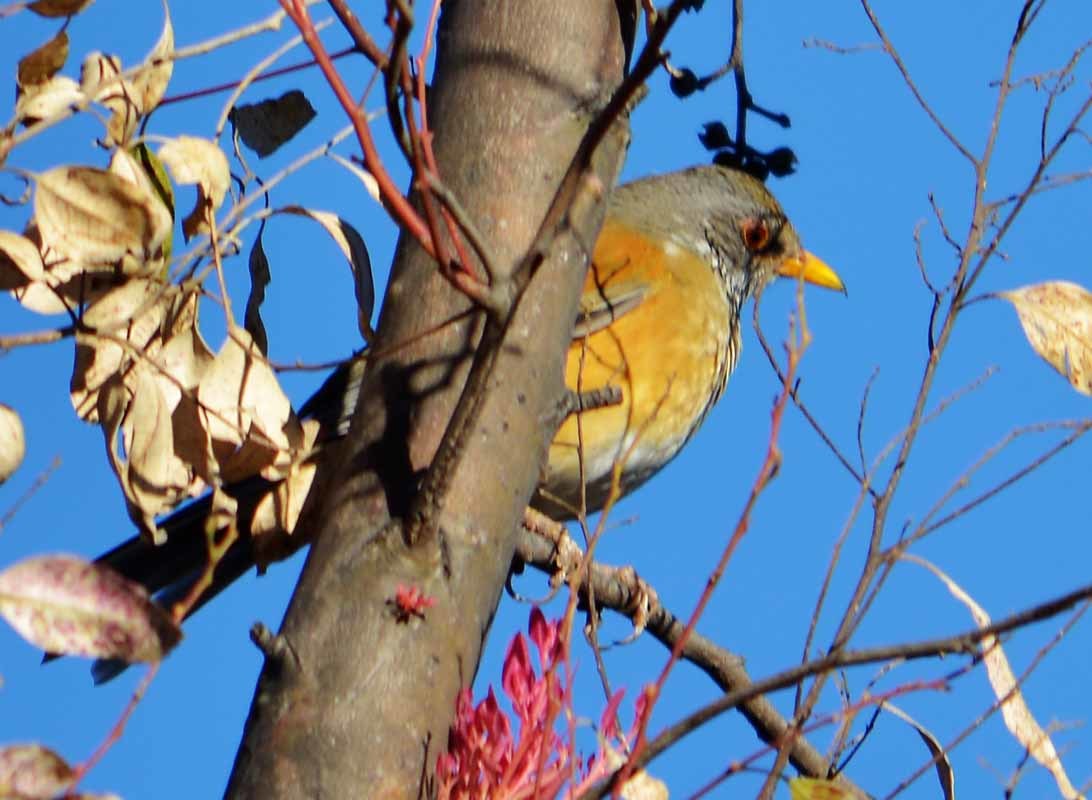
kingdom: Animalia
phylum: Chordata
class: Aves
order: Passeriformes
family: Turdidae
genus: Turdus
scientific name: Turdus rufopalliatus
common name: Rufous-backed robin
